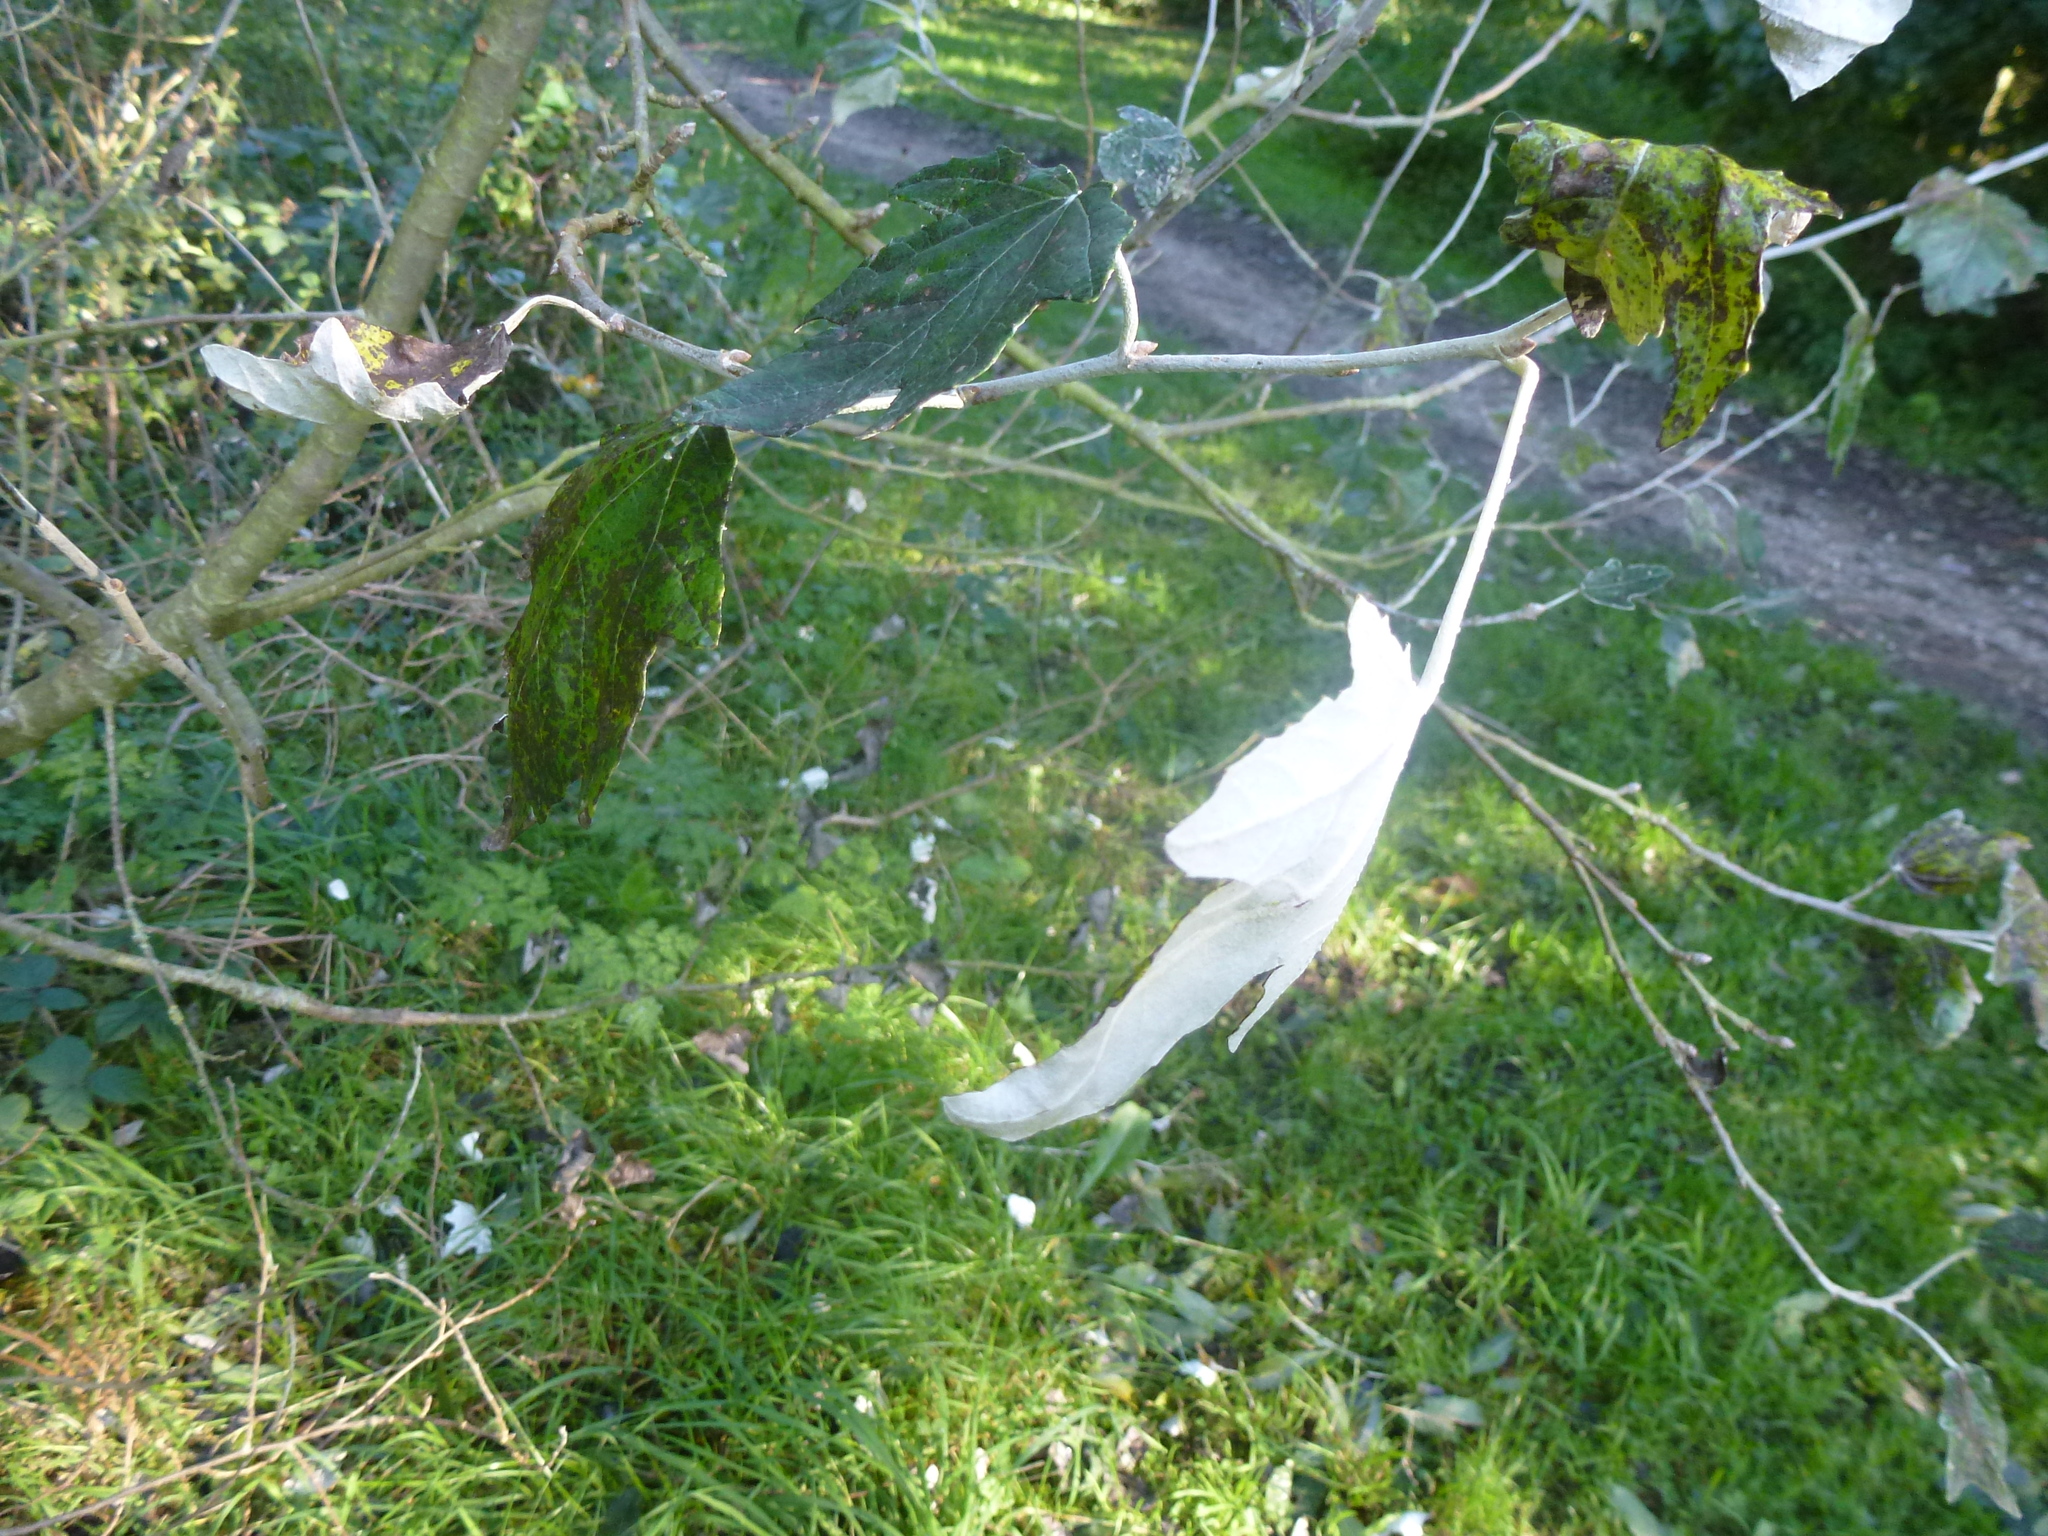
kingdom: Plantae
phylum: Tracheophyta
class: Magnoliopsida
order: Malpighiales
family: Salicaceae
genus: Populus
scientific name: Populus alba
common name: White poplar
